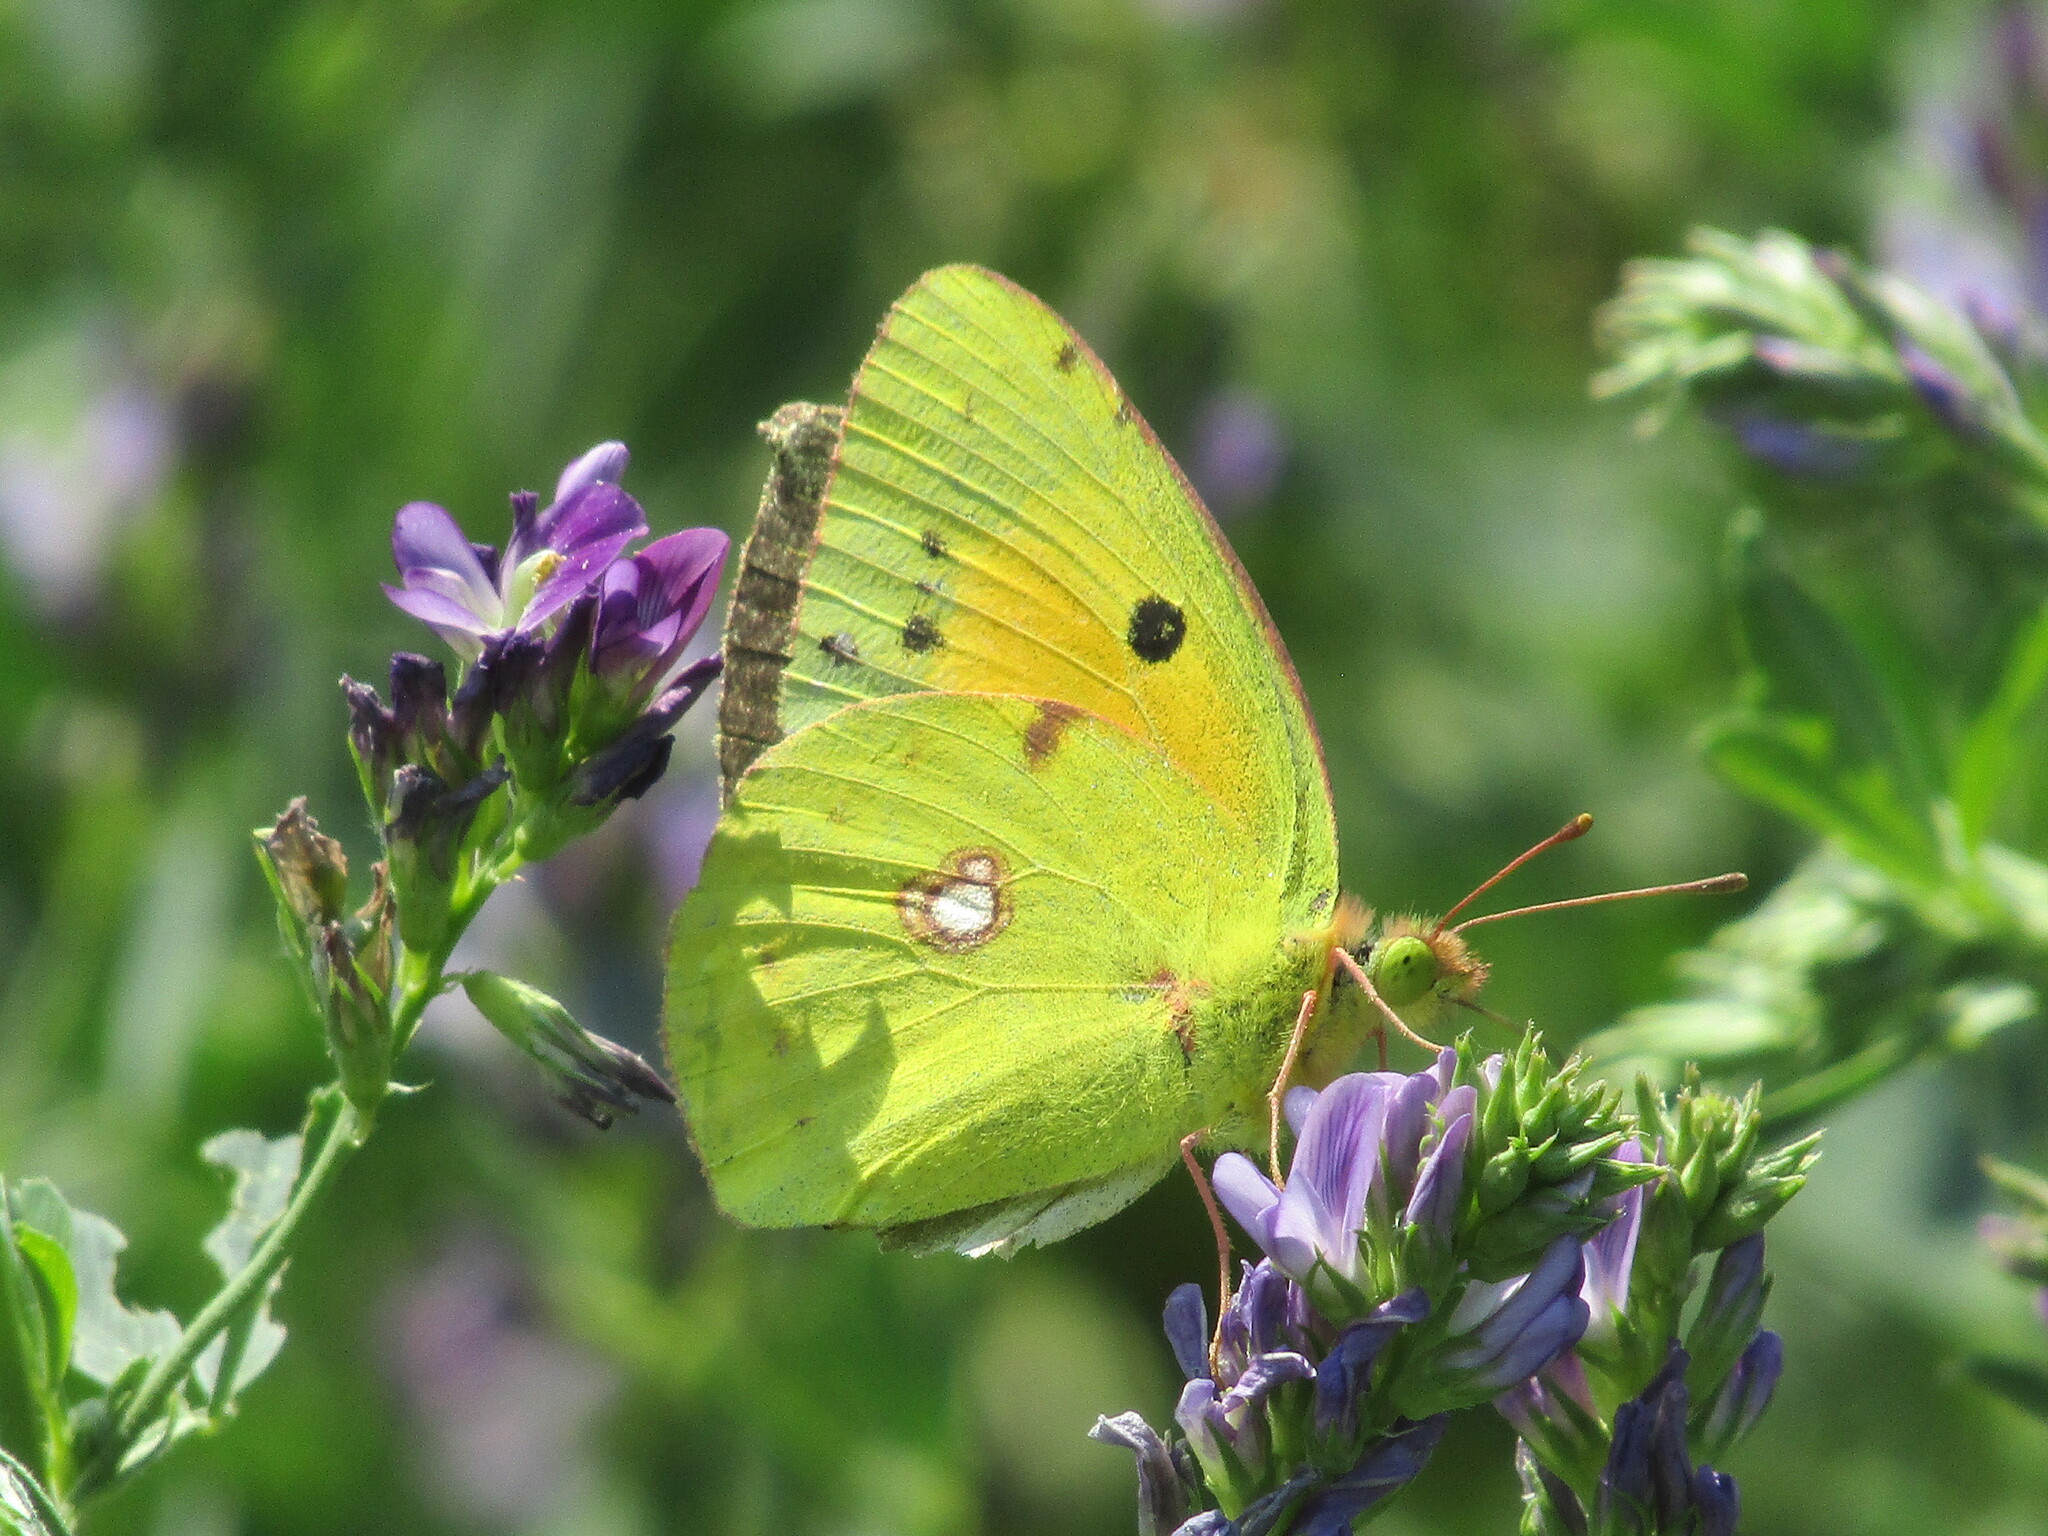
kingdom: Animalia
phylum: Arthropoda
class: Insecta
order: Lepidoptera
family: Pieridae
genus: Colias
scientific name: Colias croceus
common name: Clouded yellow
